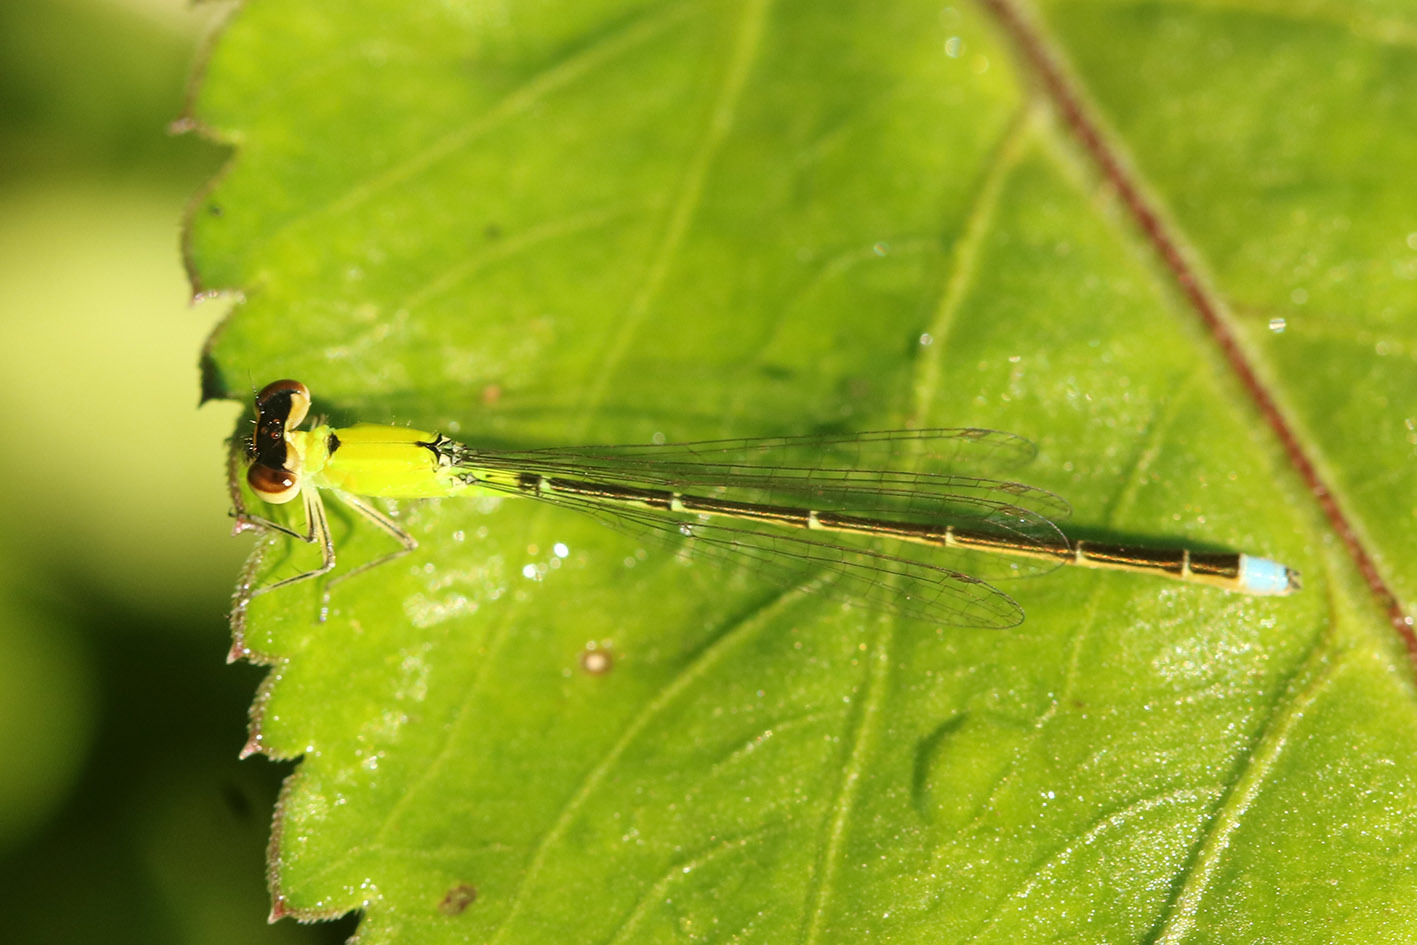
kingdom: Animalia
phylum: Arthropoda
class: Insecta
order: Odonata
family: Coenagrionidae
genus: Ischnura
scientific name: Ischnura capreolus
